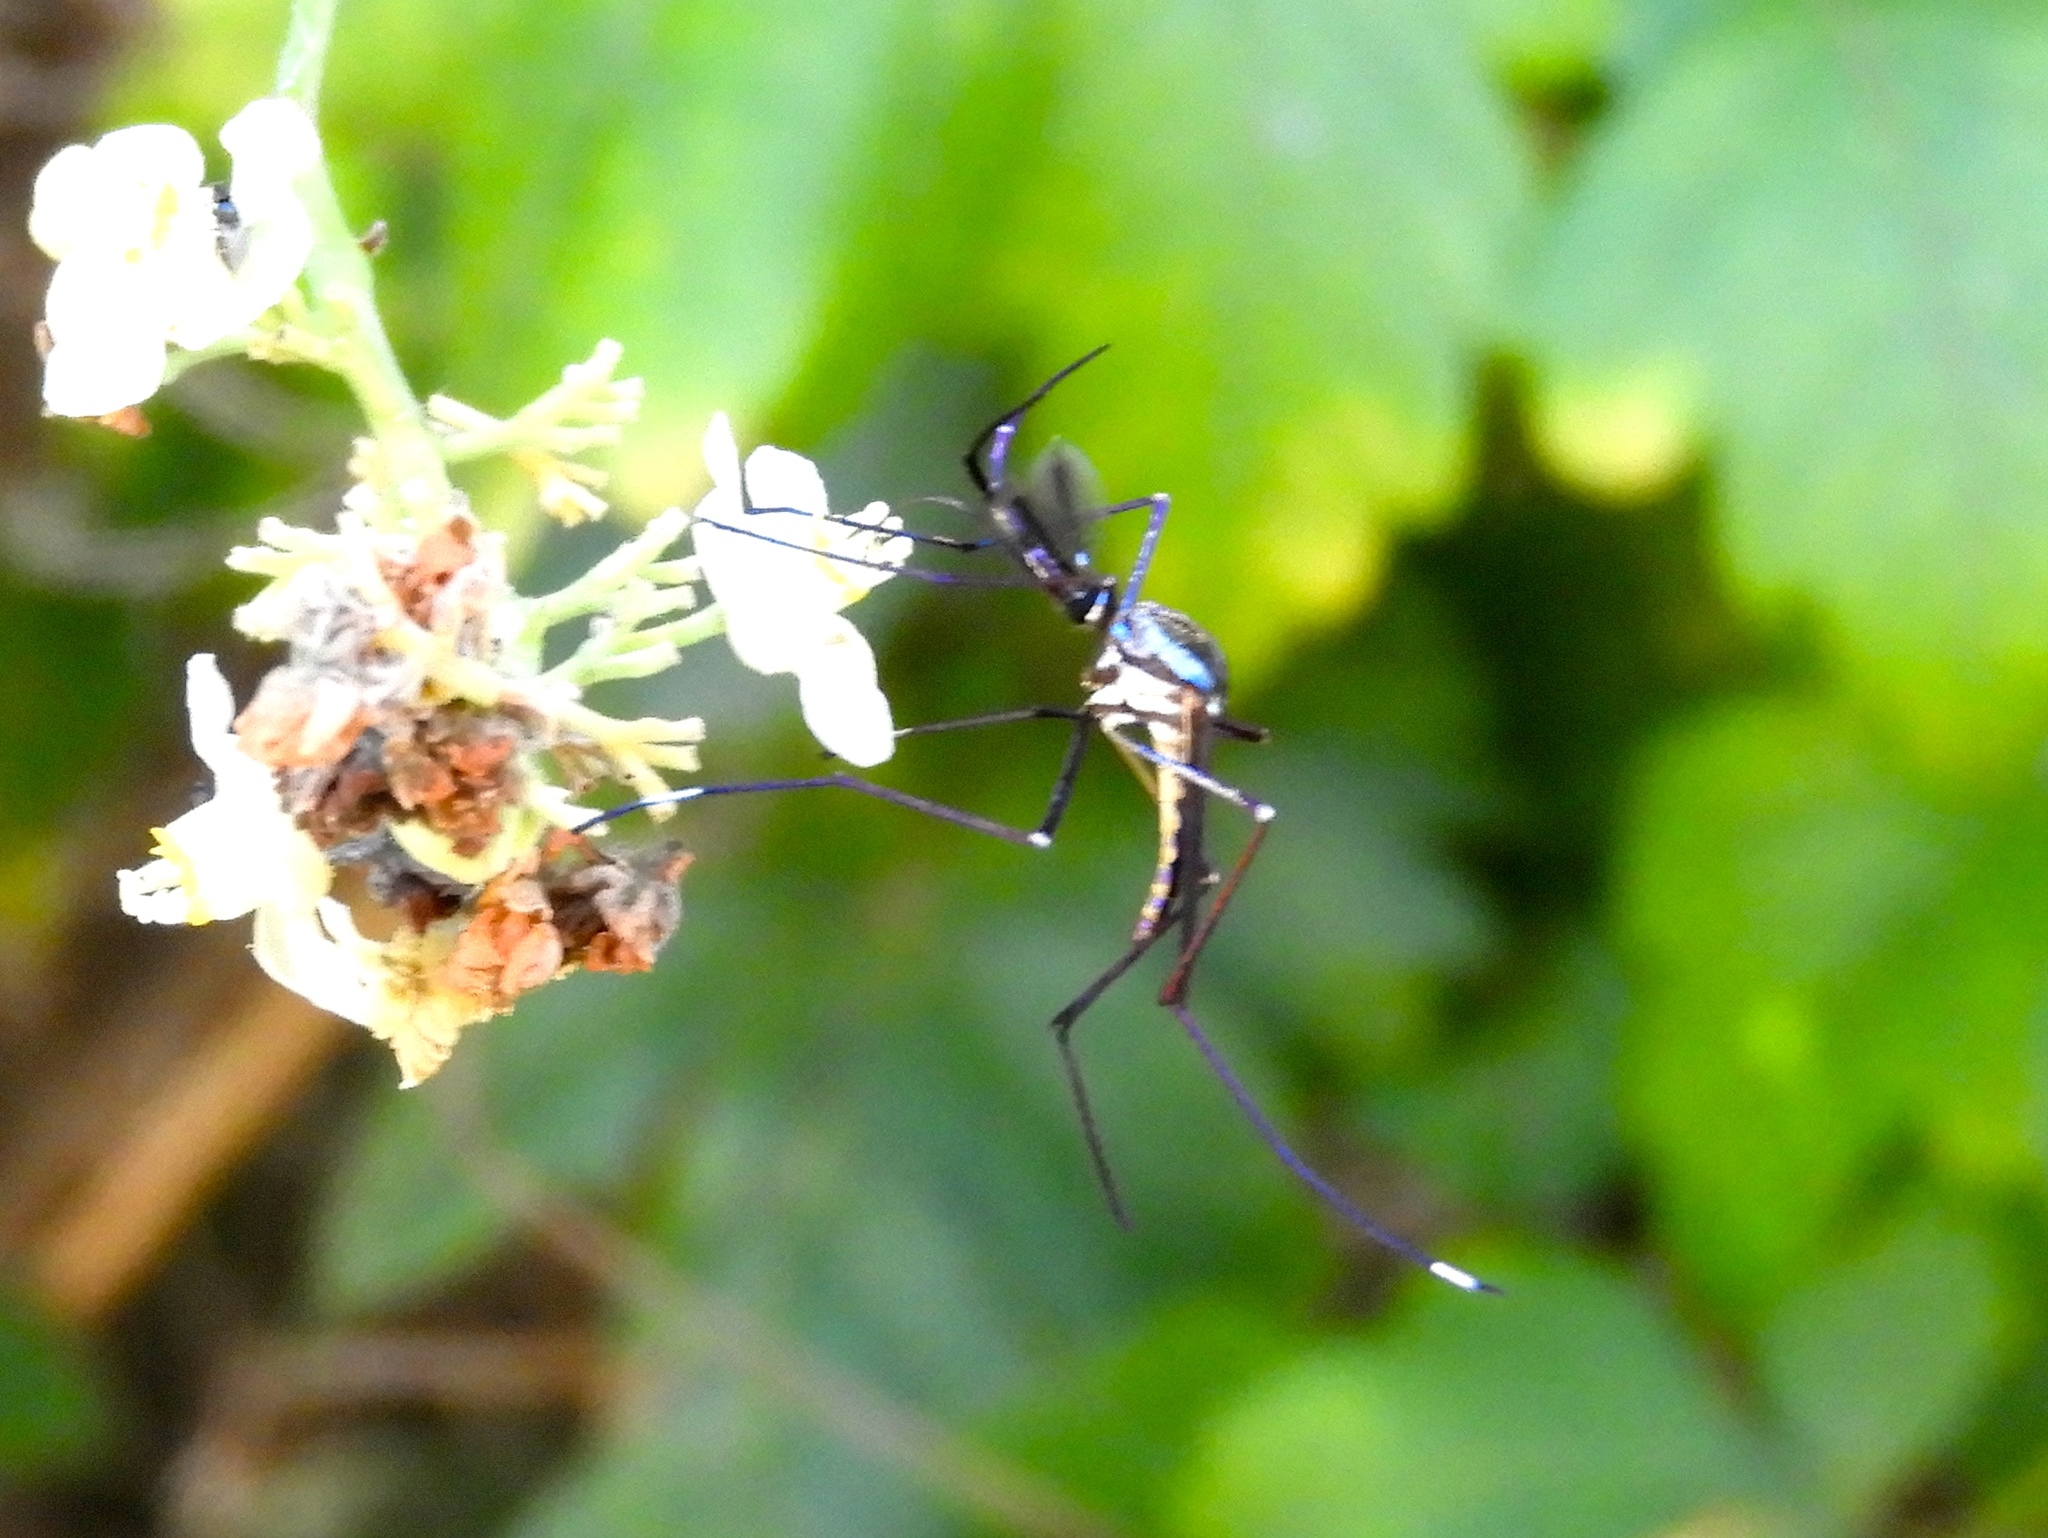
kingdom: Animalia
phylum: Arthropoda
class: Insecta
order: Diptera
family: Culicidae
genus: Toxorhynchites
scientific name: Toxorhynchites rutilus
